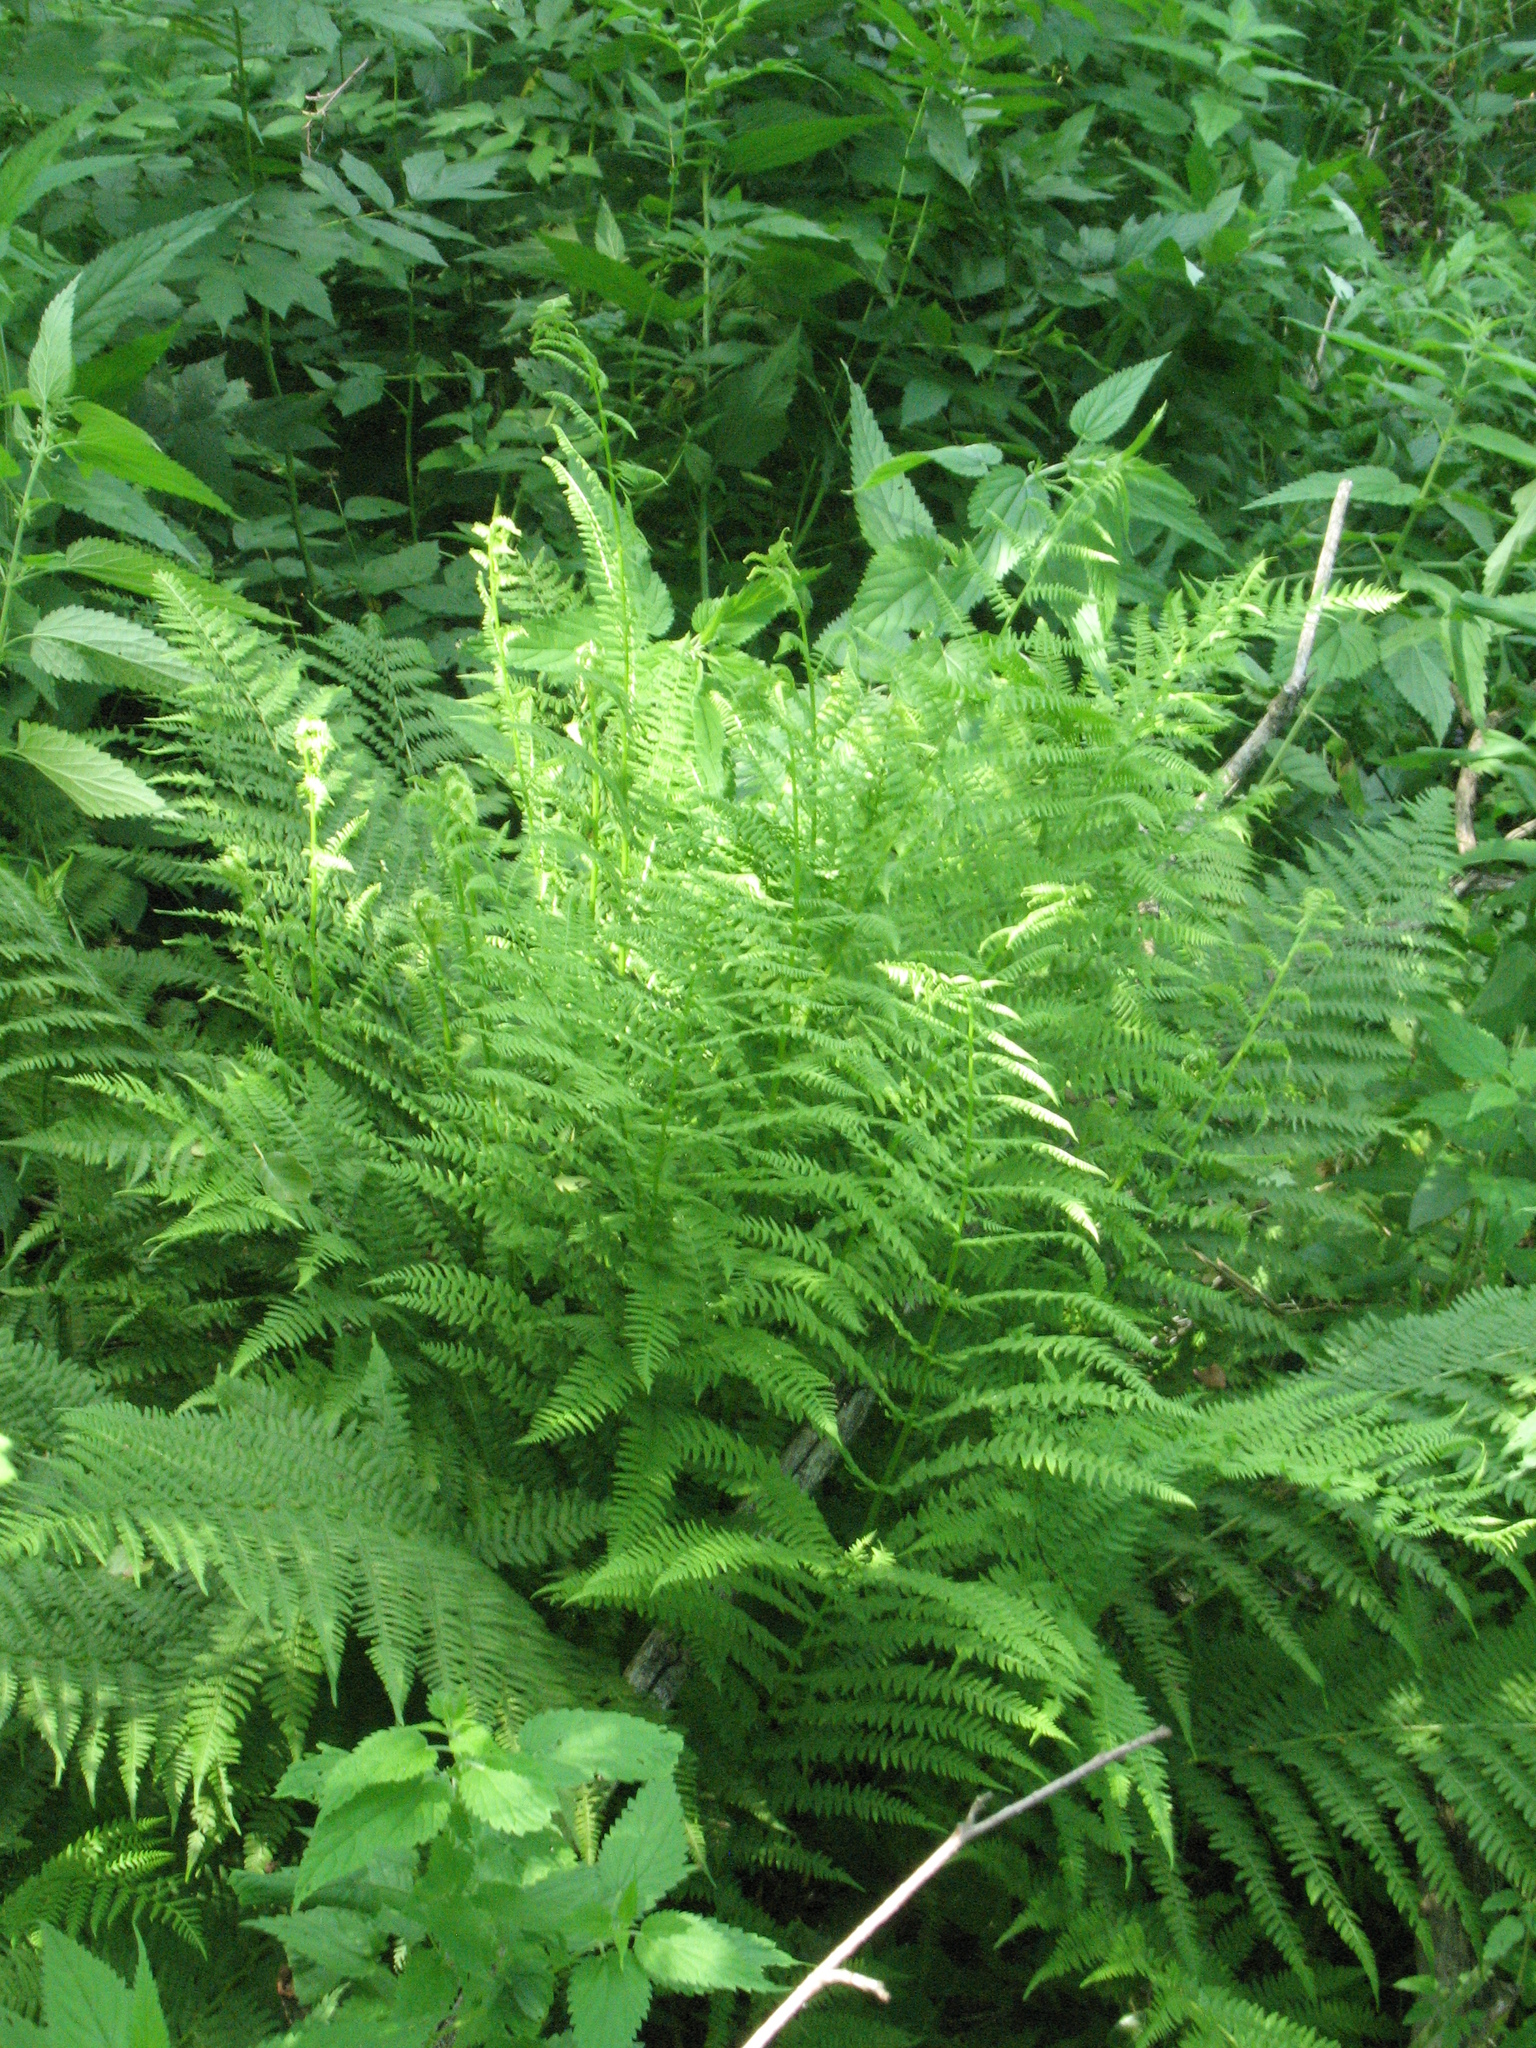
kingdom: Plantae
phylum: Tracheophyta
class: Polypodiopsida
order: Polypodiales
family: Athyriaceae
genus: Athyrium
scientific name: Athyrium filix-femina
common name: Lady fern
